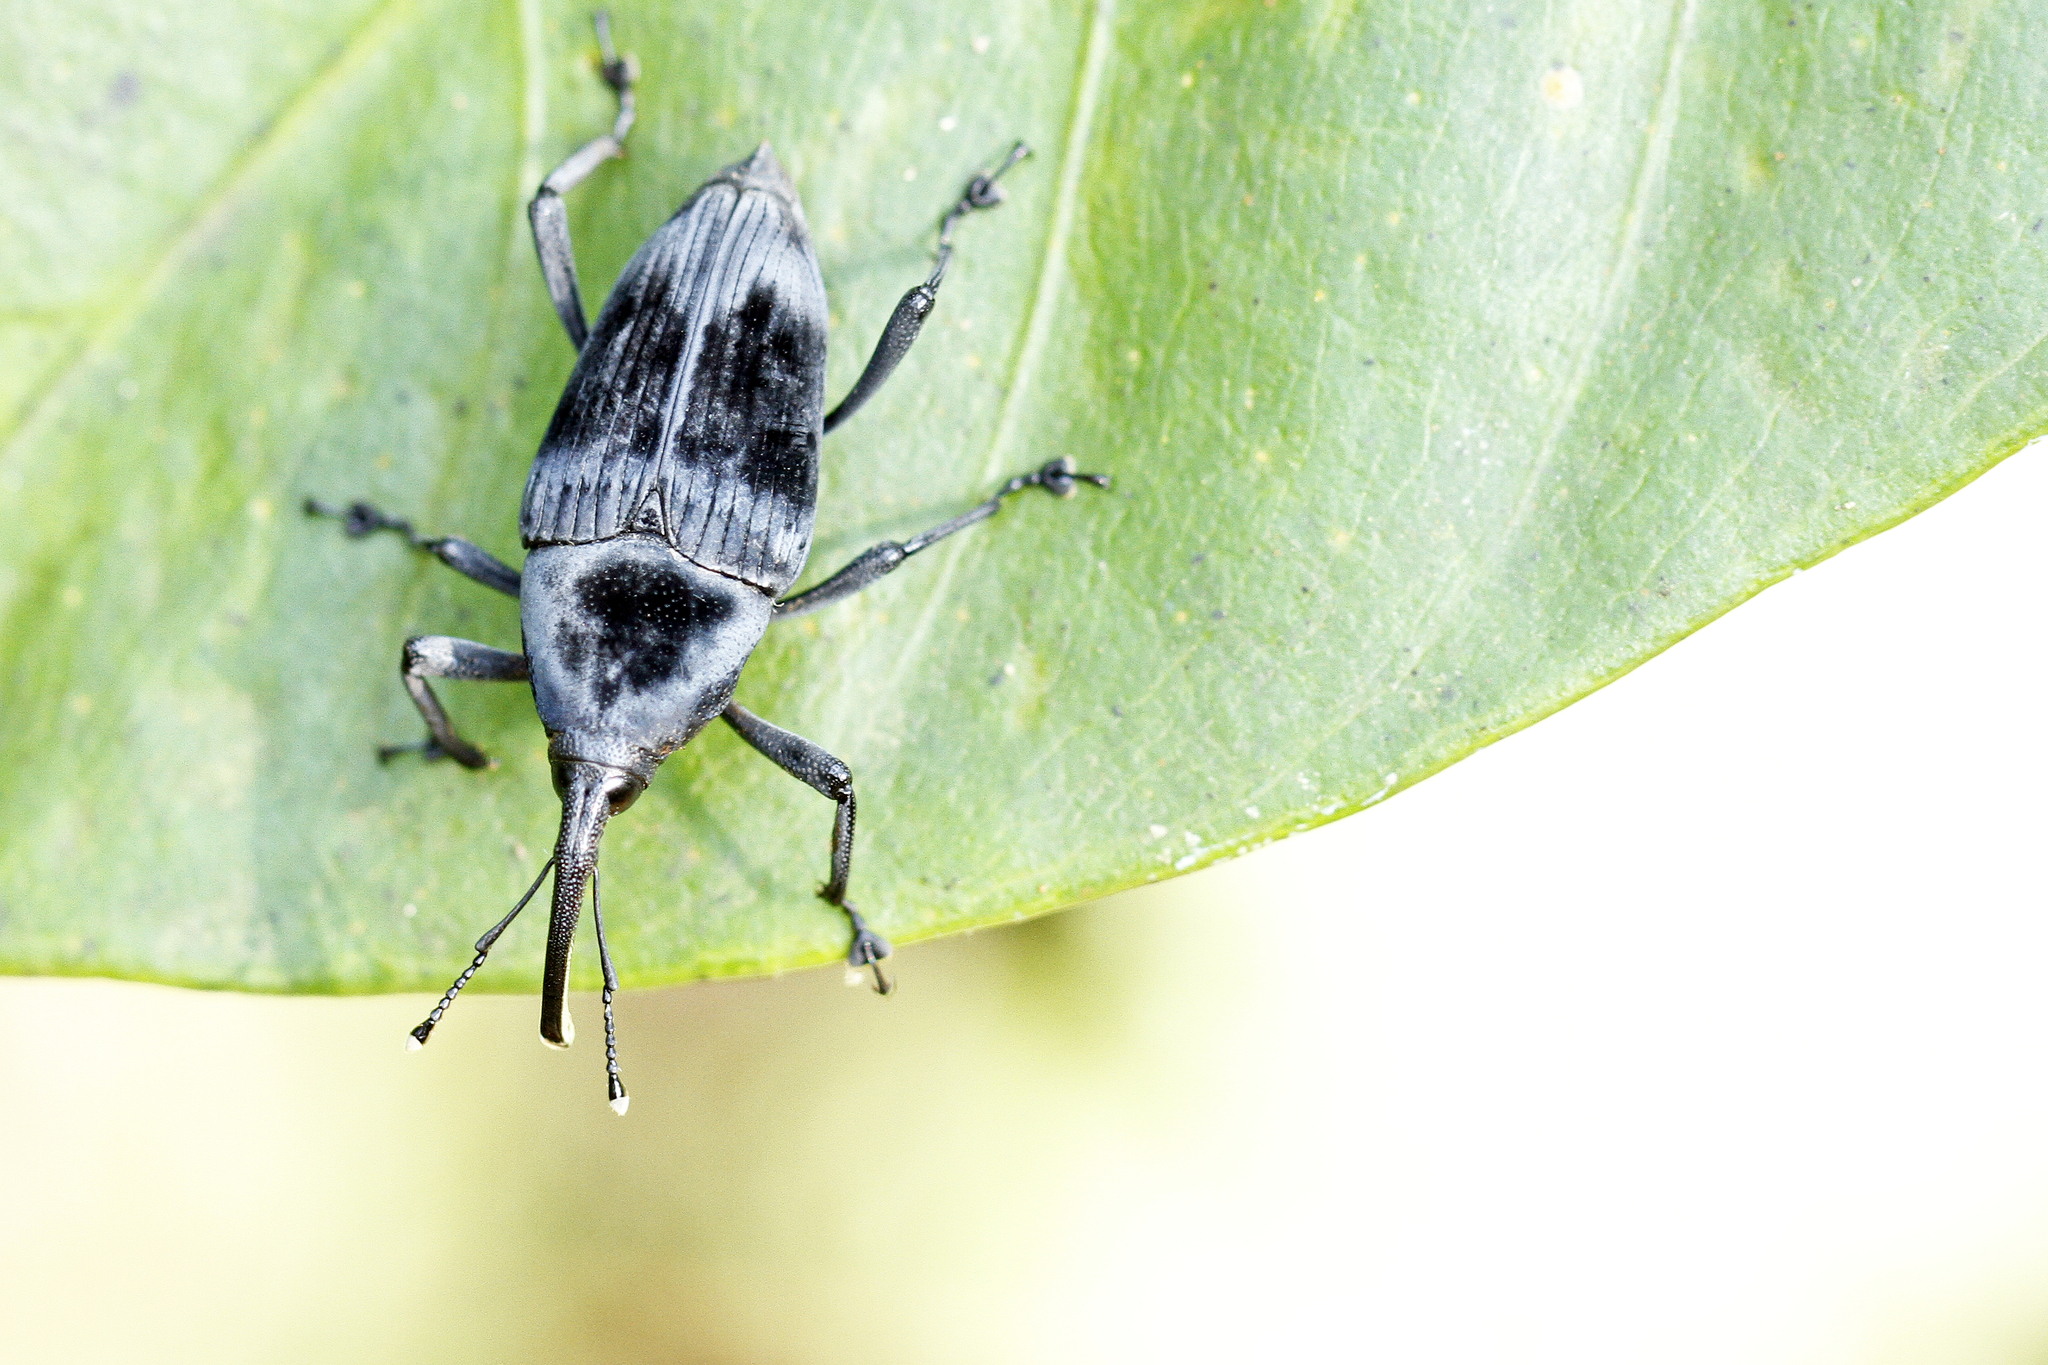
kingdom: Animalia
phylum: Arthropoda
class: Insecta
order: Coleoptera
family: Dryophthoridae
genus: Cactophagus
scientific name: Cactophagus
